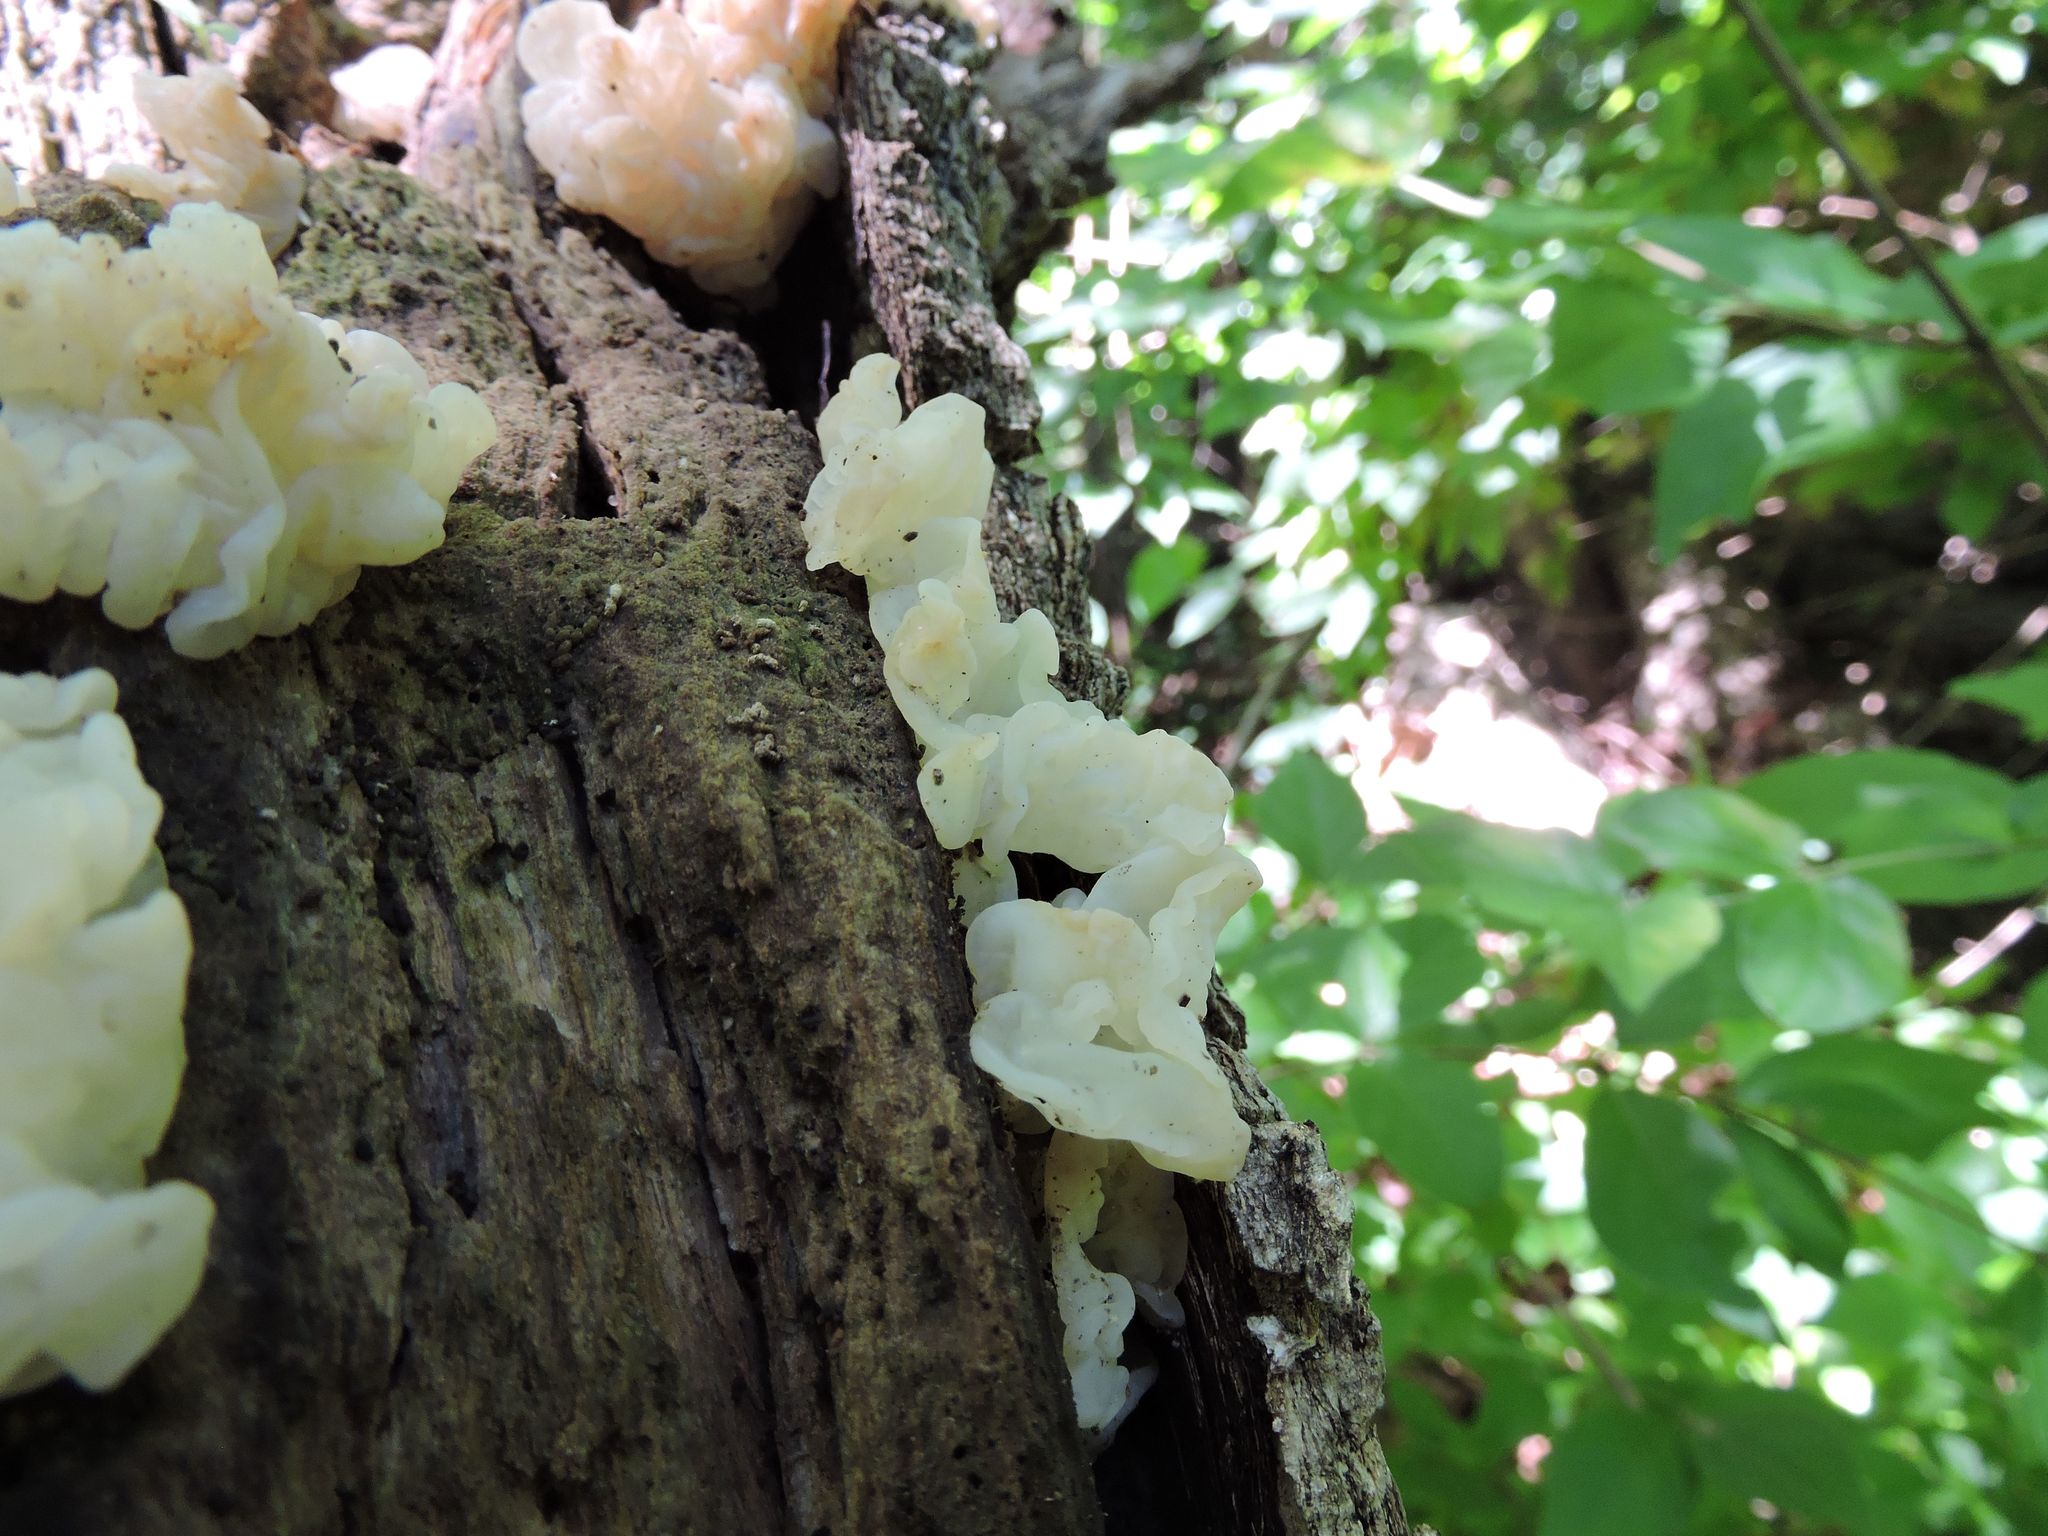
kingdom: Fungi
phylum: Basidiomycota
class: Agaricomycetes
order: Auriculariales
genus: Ductifera
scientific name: Ductifera pululahuana
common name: White jelly fungus
